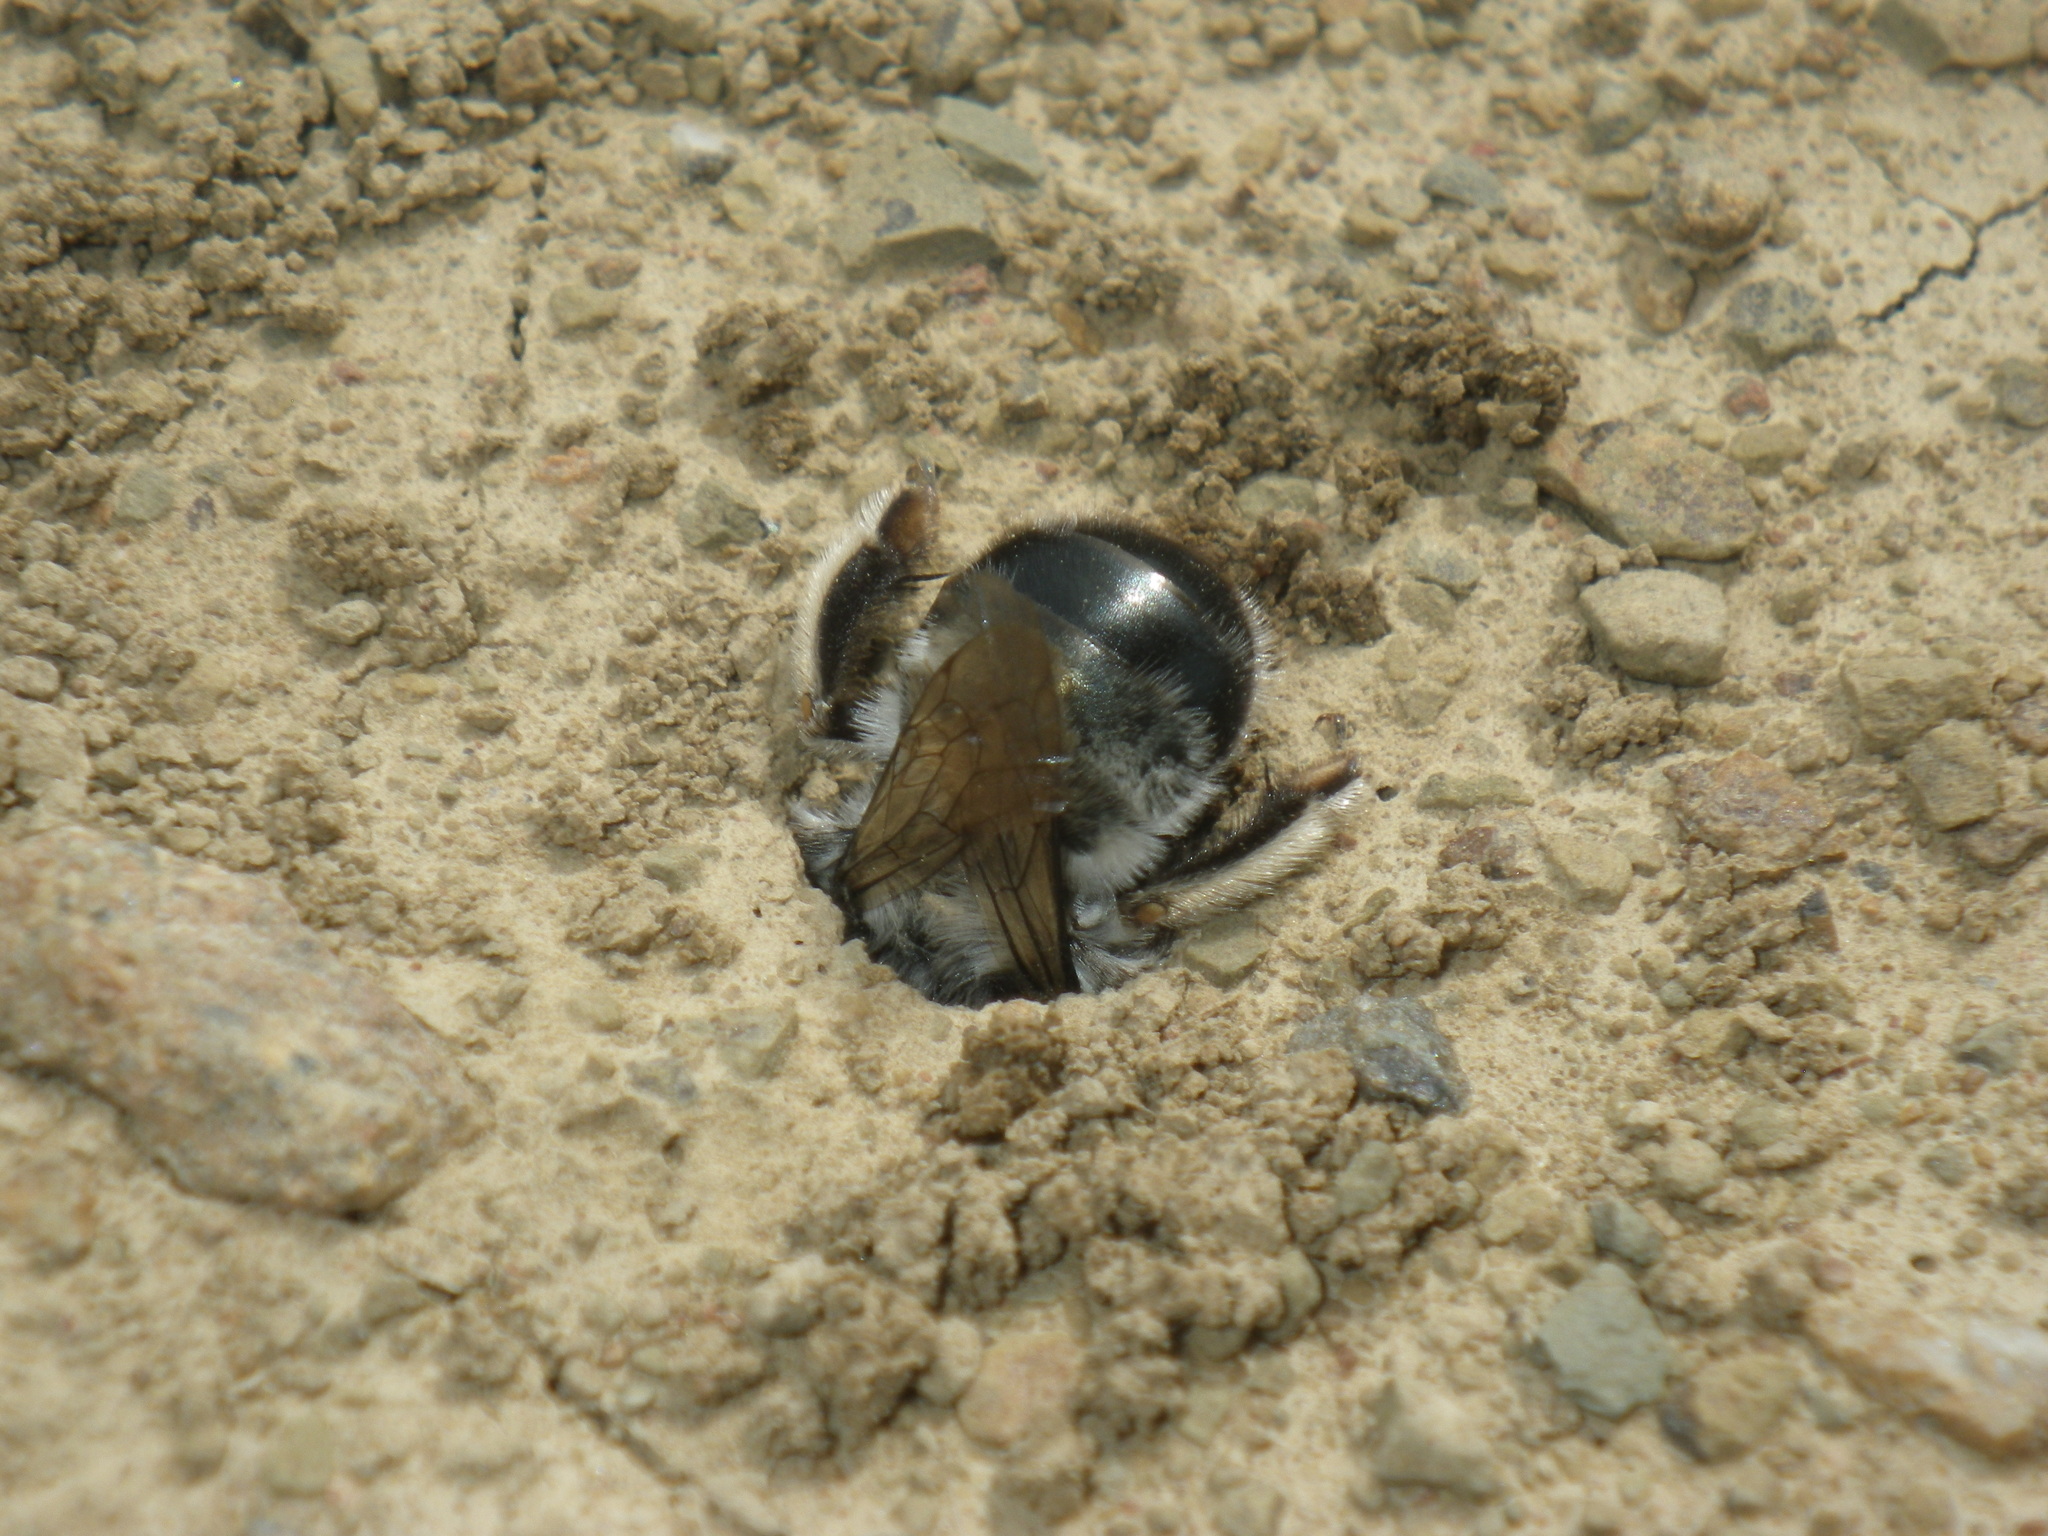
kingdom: Animalia
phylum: Arthropoda
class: Insecta
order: Hymenoptera
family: Apidae
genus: Anthophora
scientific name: Anthophora edwardsii
